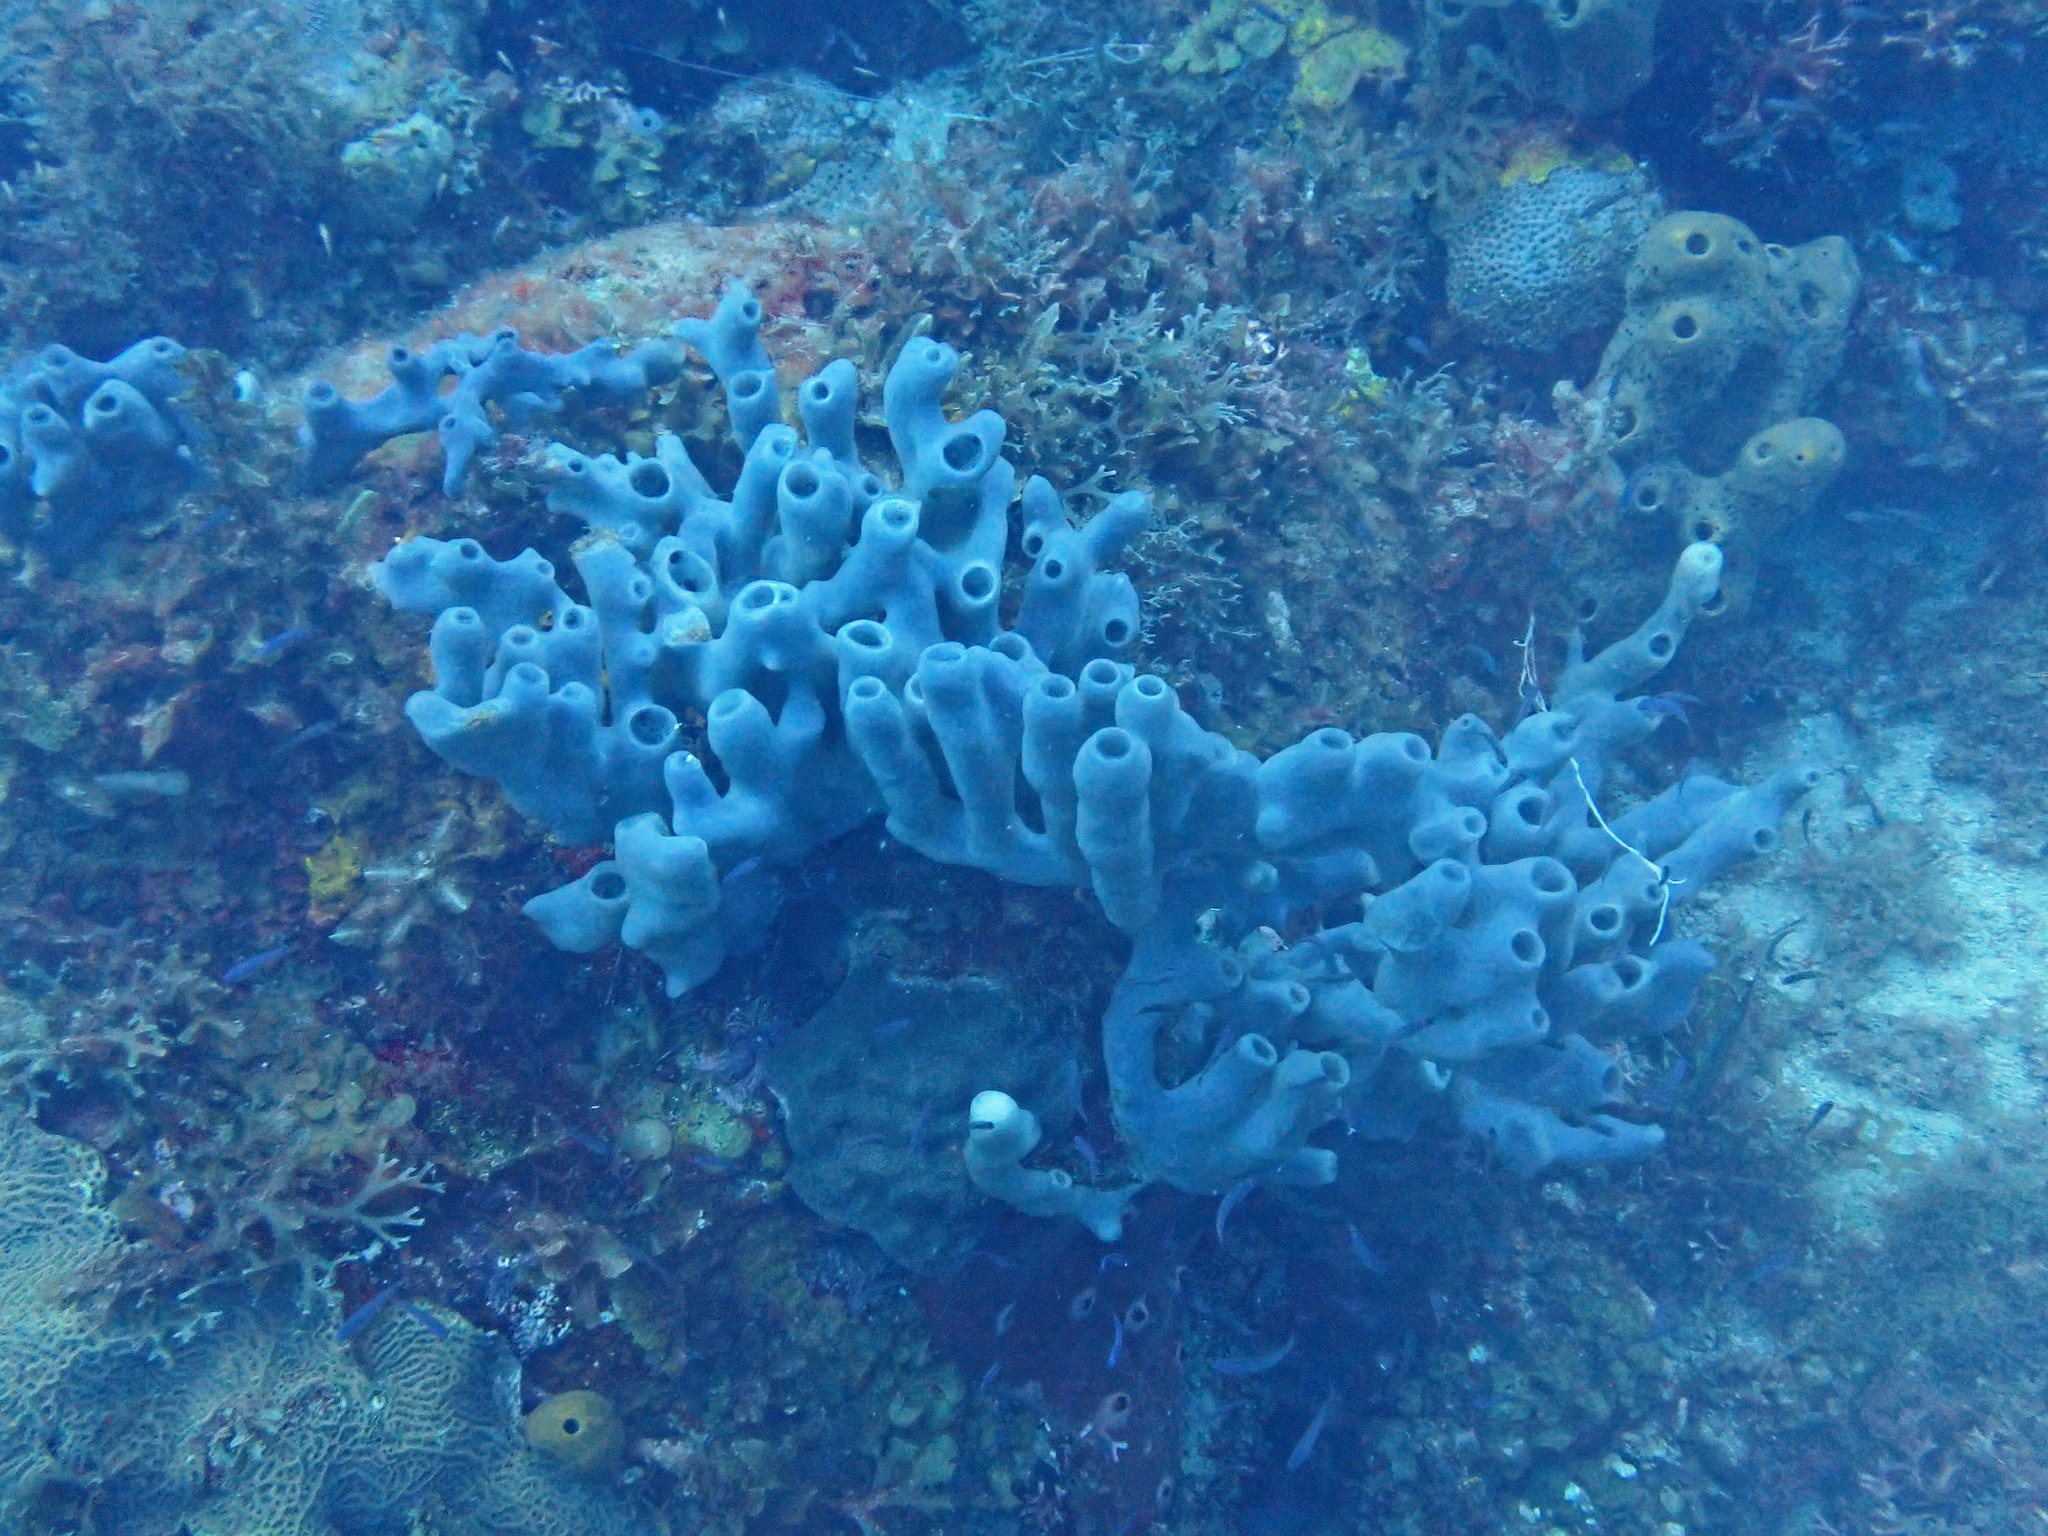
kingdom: Animalia
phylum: Porifera
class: Demospongiae
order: Haplosclerida
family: Callyspongiidae
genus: Callyspongia
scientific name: Callyspongia fallax
